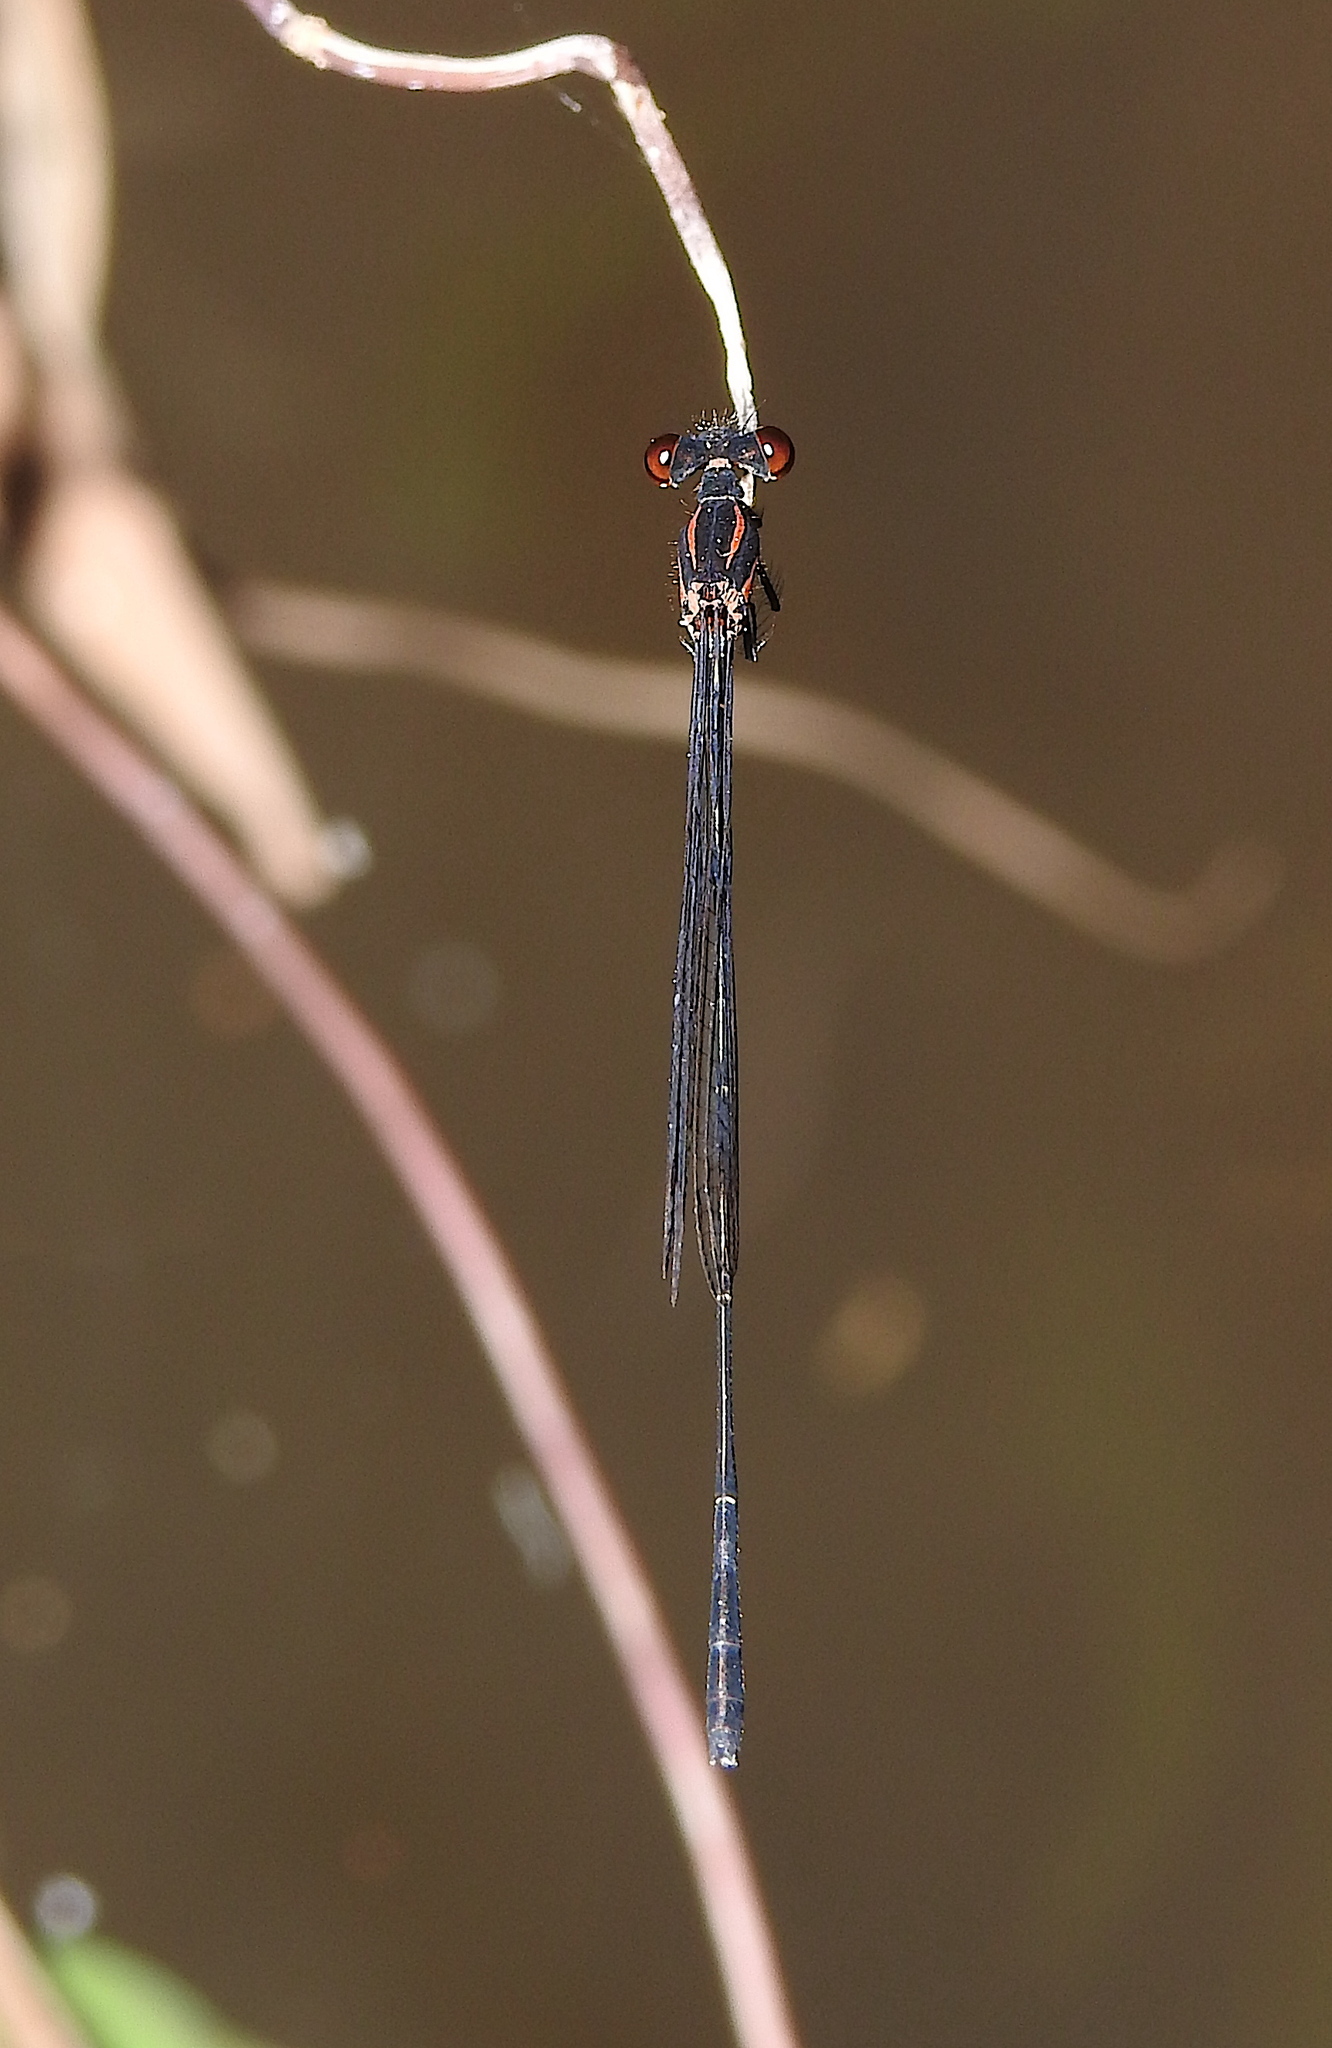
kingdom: Animalia
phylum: Arthropoda
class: Insecta
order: Odonata
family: Platycnemididae
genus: Prodasineura
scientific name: Prodasineura verticalis
